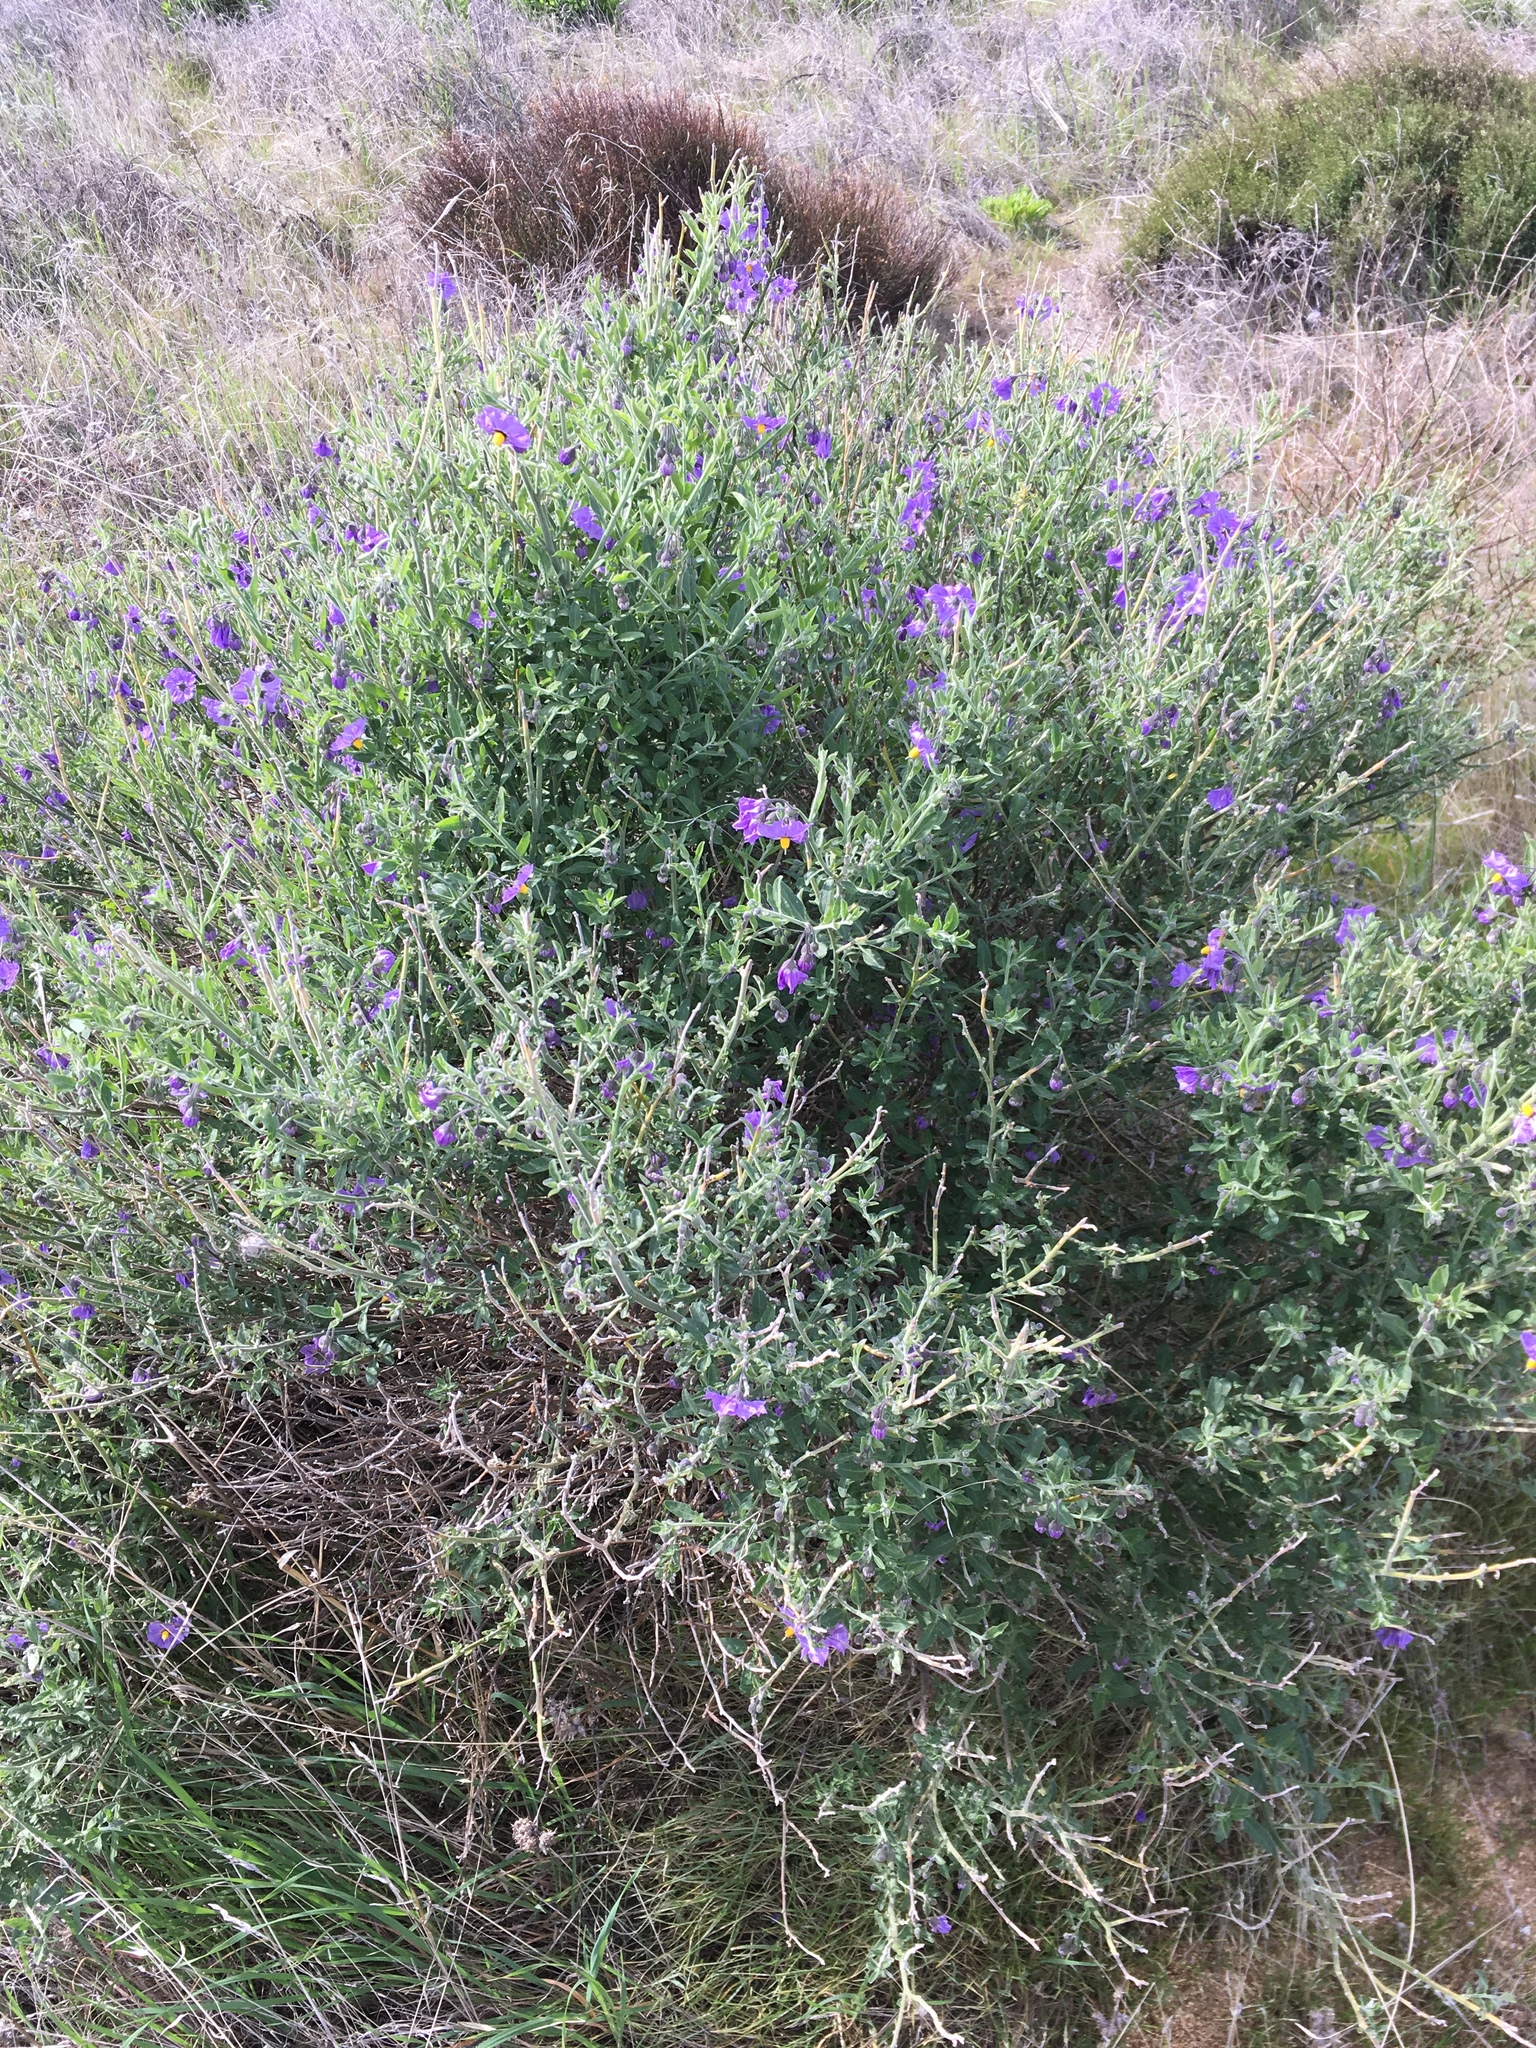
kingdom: Plantae
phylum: Tracheophyta
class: Magnoliopsida
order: Solanales
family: Solanaceae
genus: Solanum
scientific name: Solanum umbelliferum
